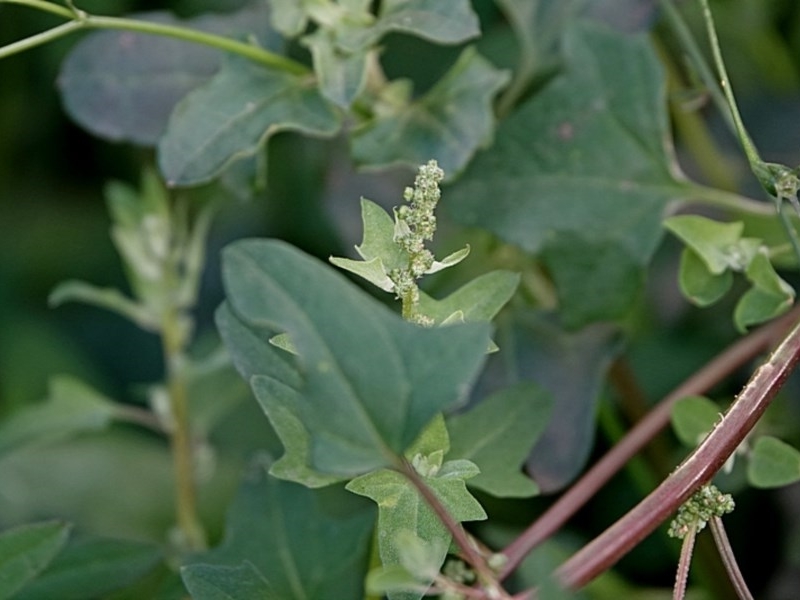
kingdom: Plantae
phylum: Tracheophyta
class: Magnoliopsida
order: Caryophyllales
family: Amaranthaceae
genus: Chenopodium
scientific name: Chenopodium trigonon
